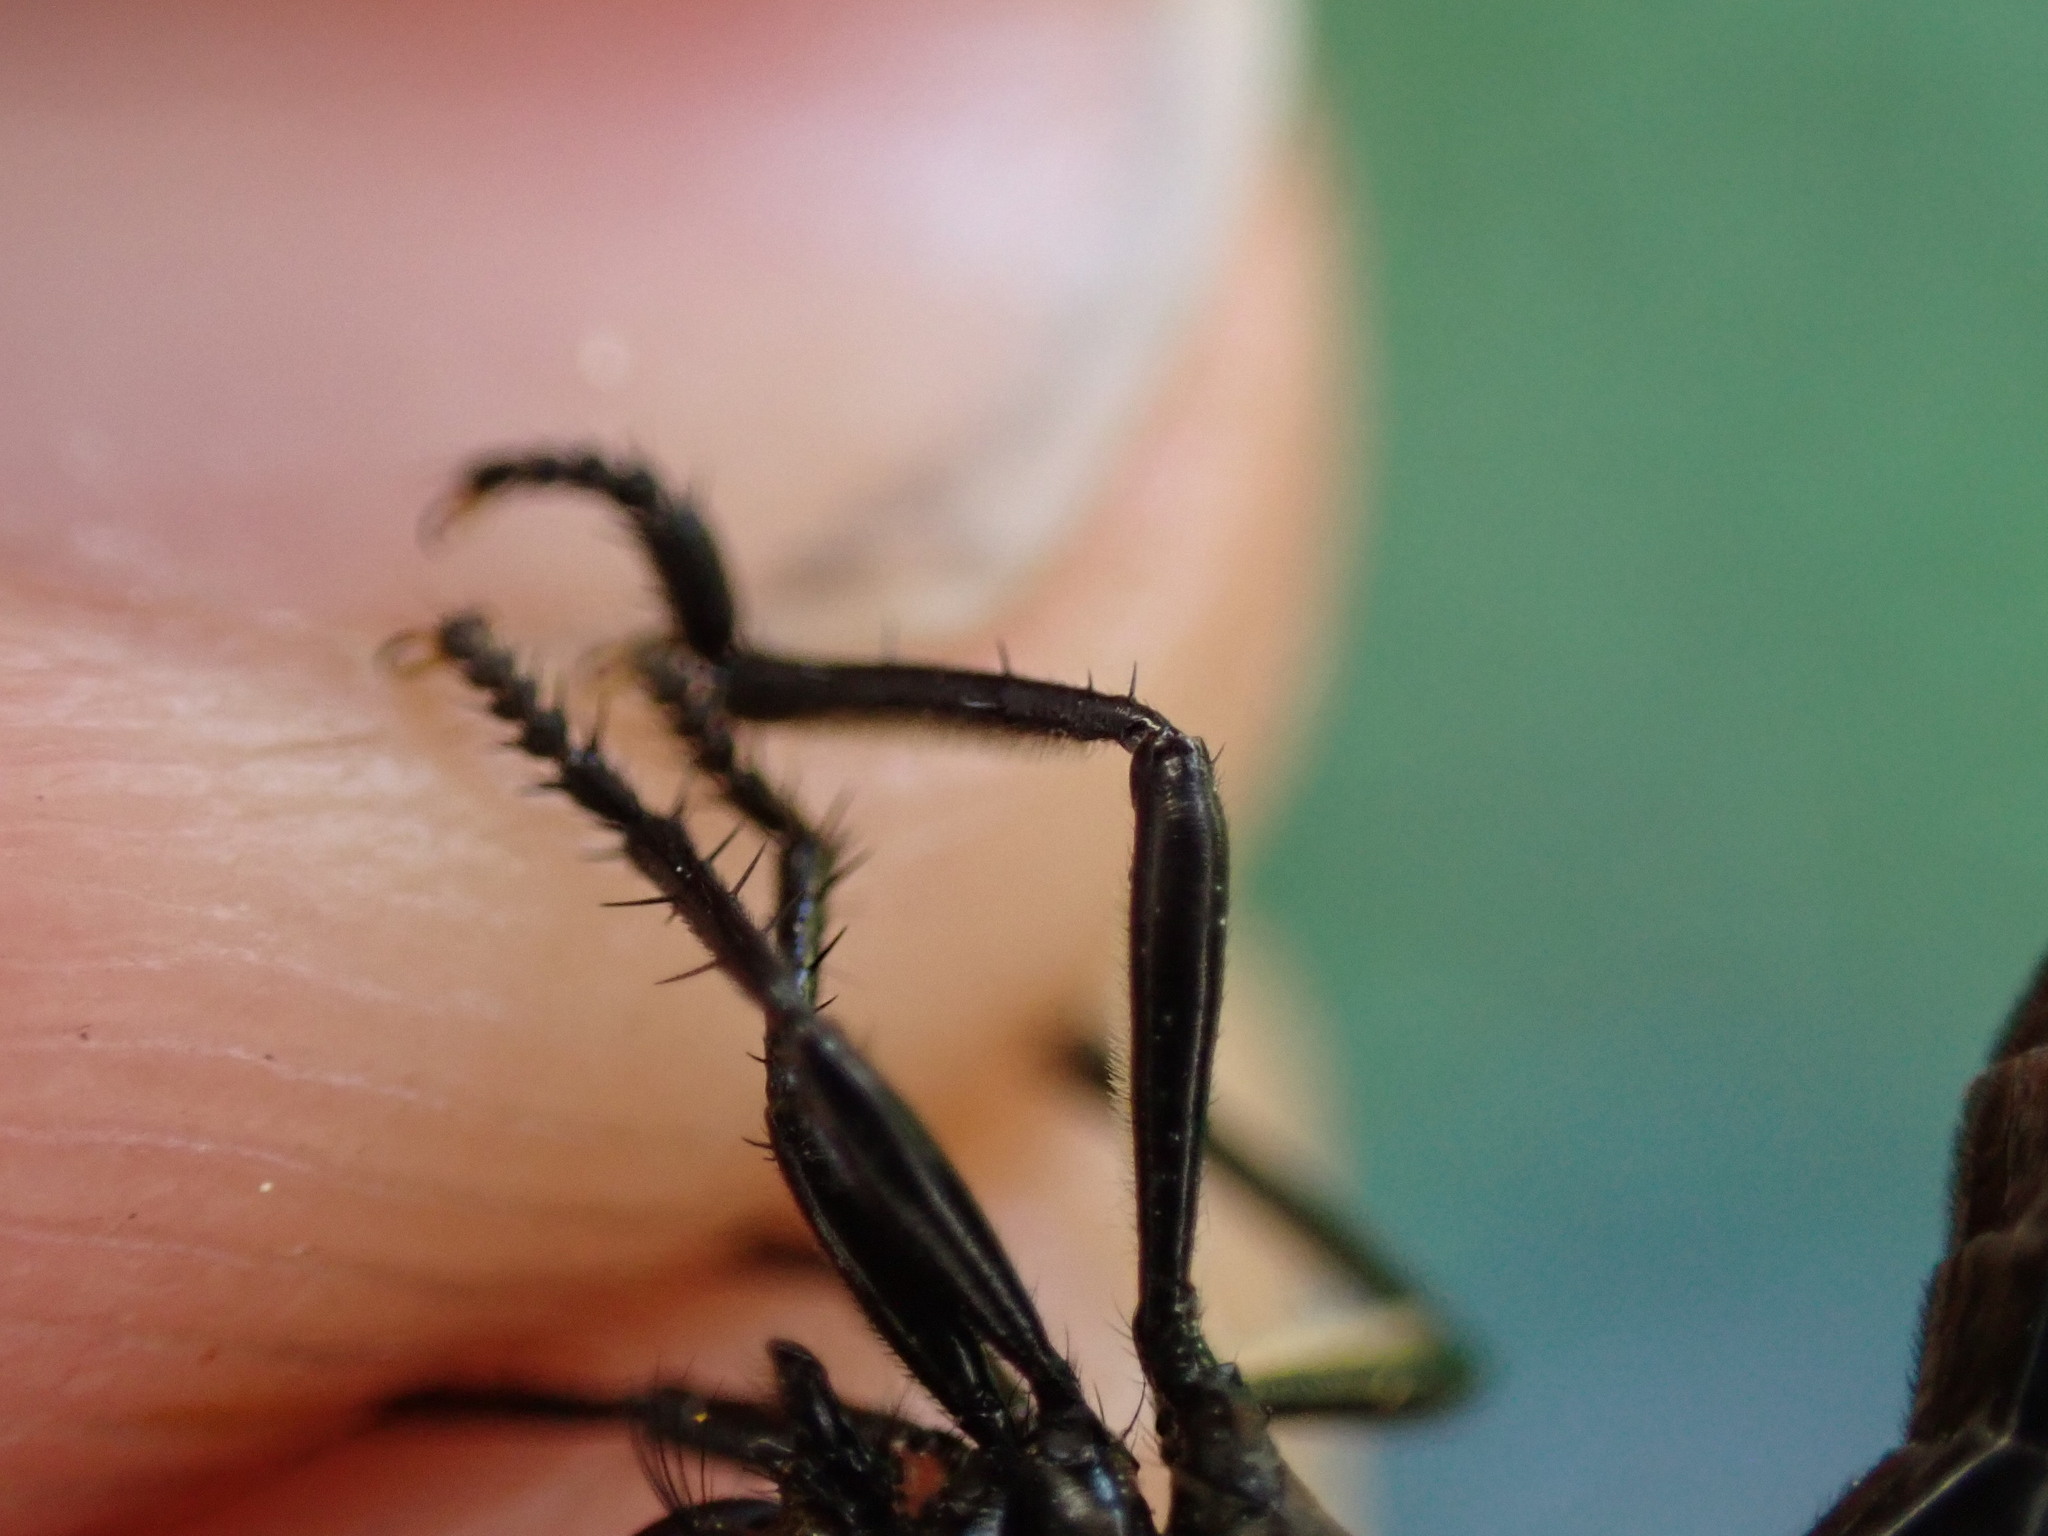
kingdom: Animalia
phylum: Arthropoda
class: Insecta
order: Diptera
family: Asilidae
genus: Dioctria
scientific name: Dioctria atricapilla
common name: Violet black-legged
